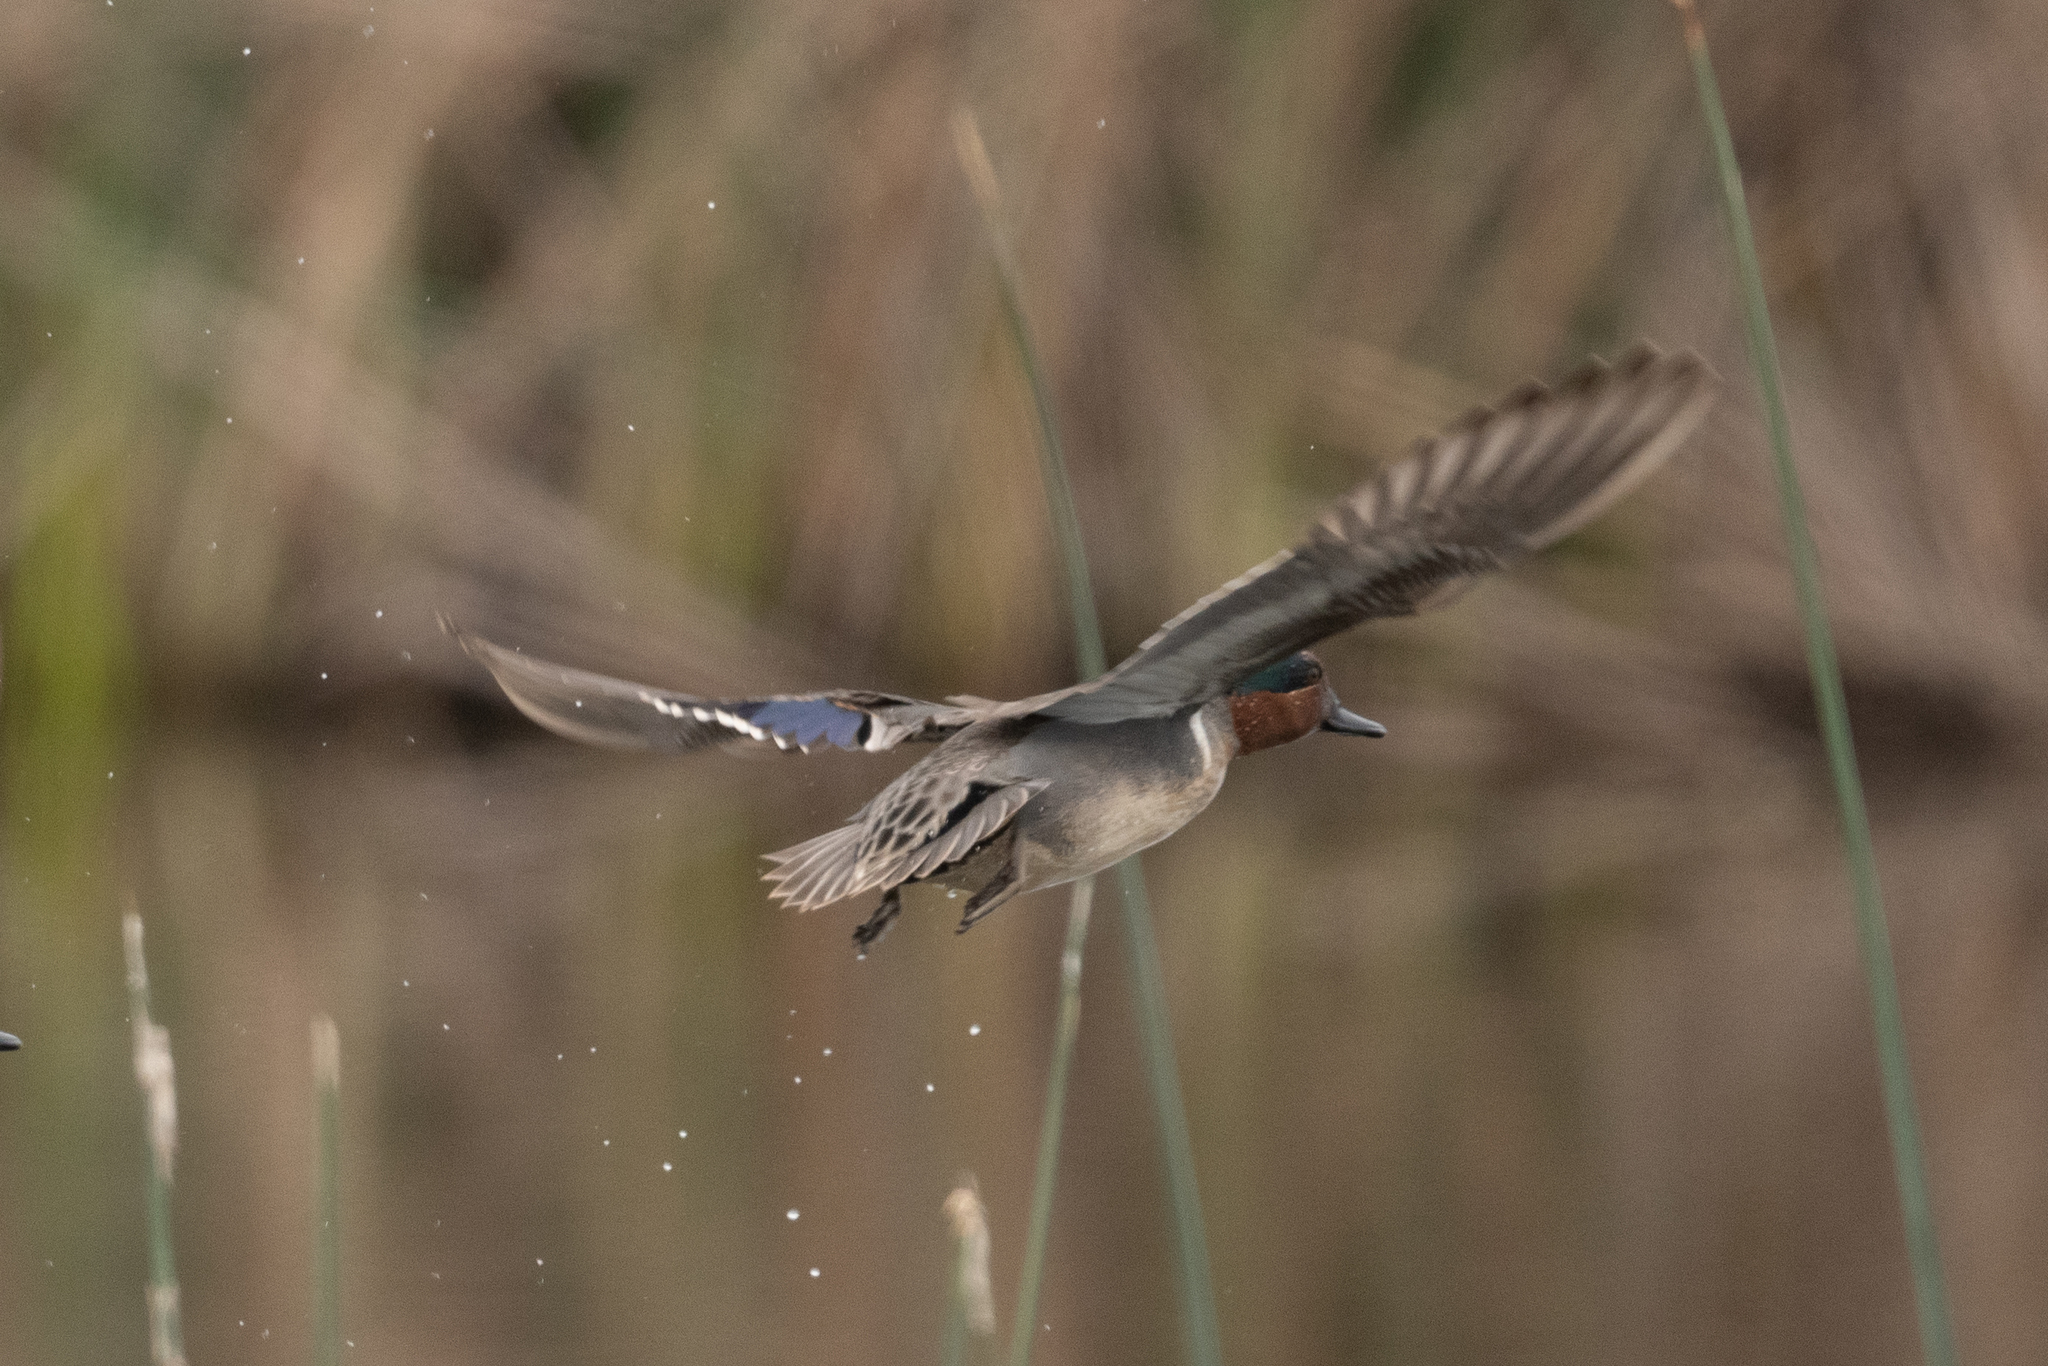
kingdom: Animalia
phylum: Chordata
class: Aves
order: Anseriformes
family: Anatidae
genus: Anas
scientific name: Anas crecca
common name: Eurasian teal
